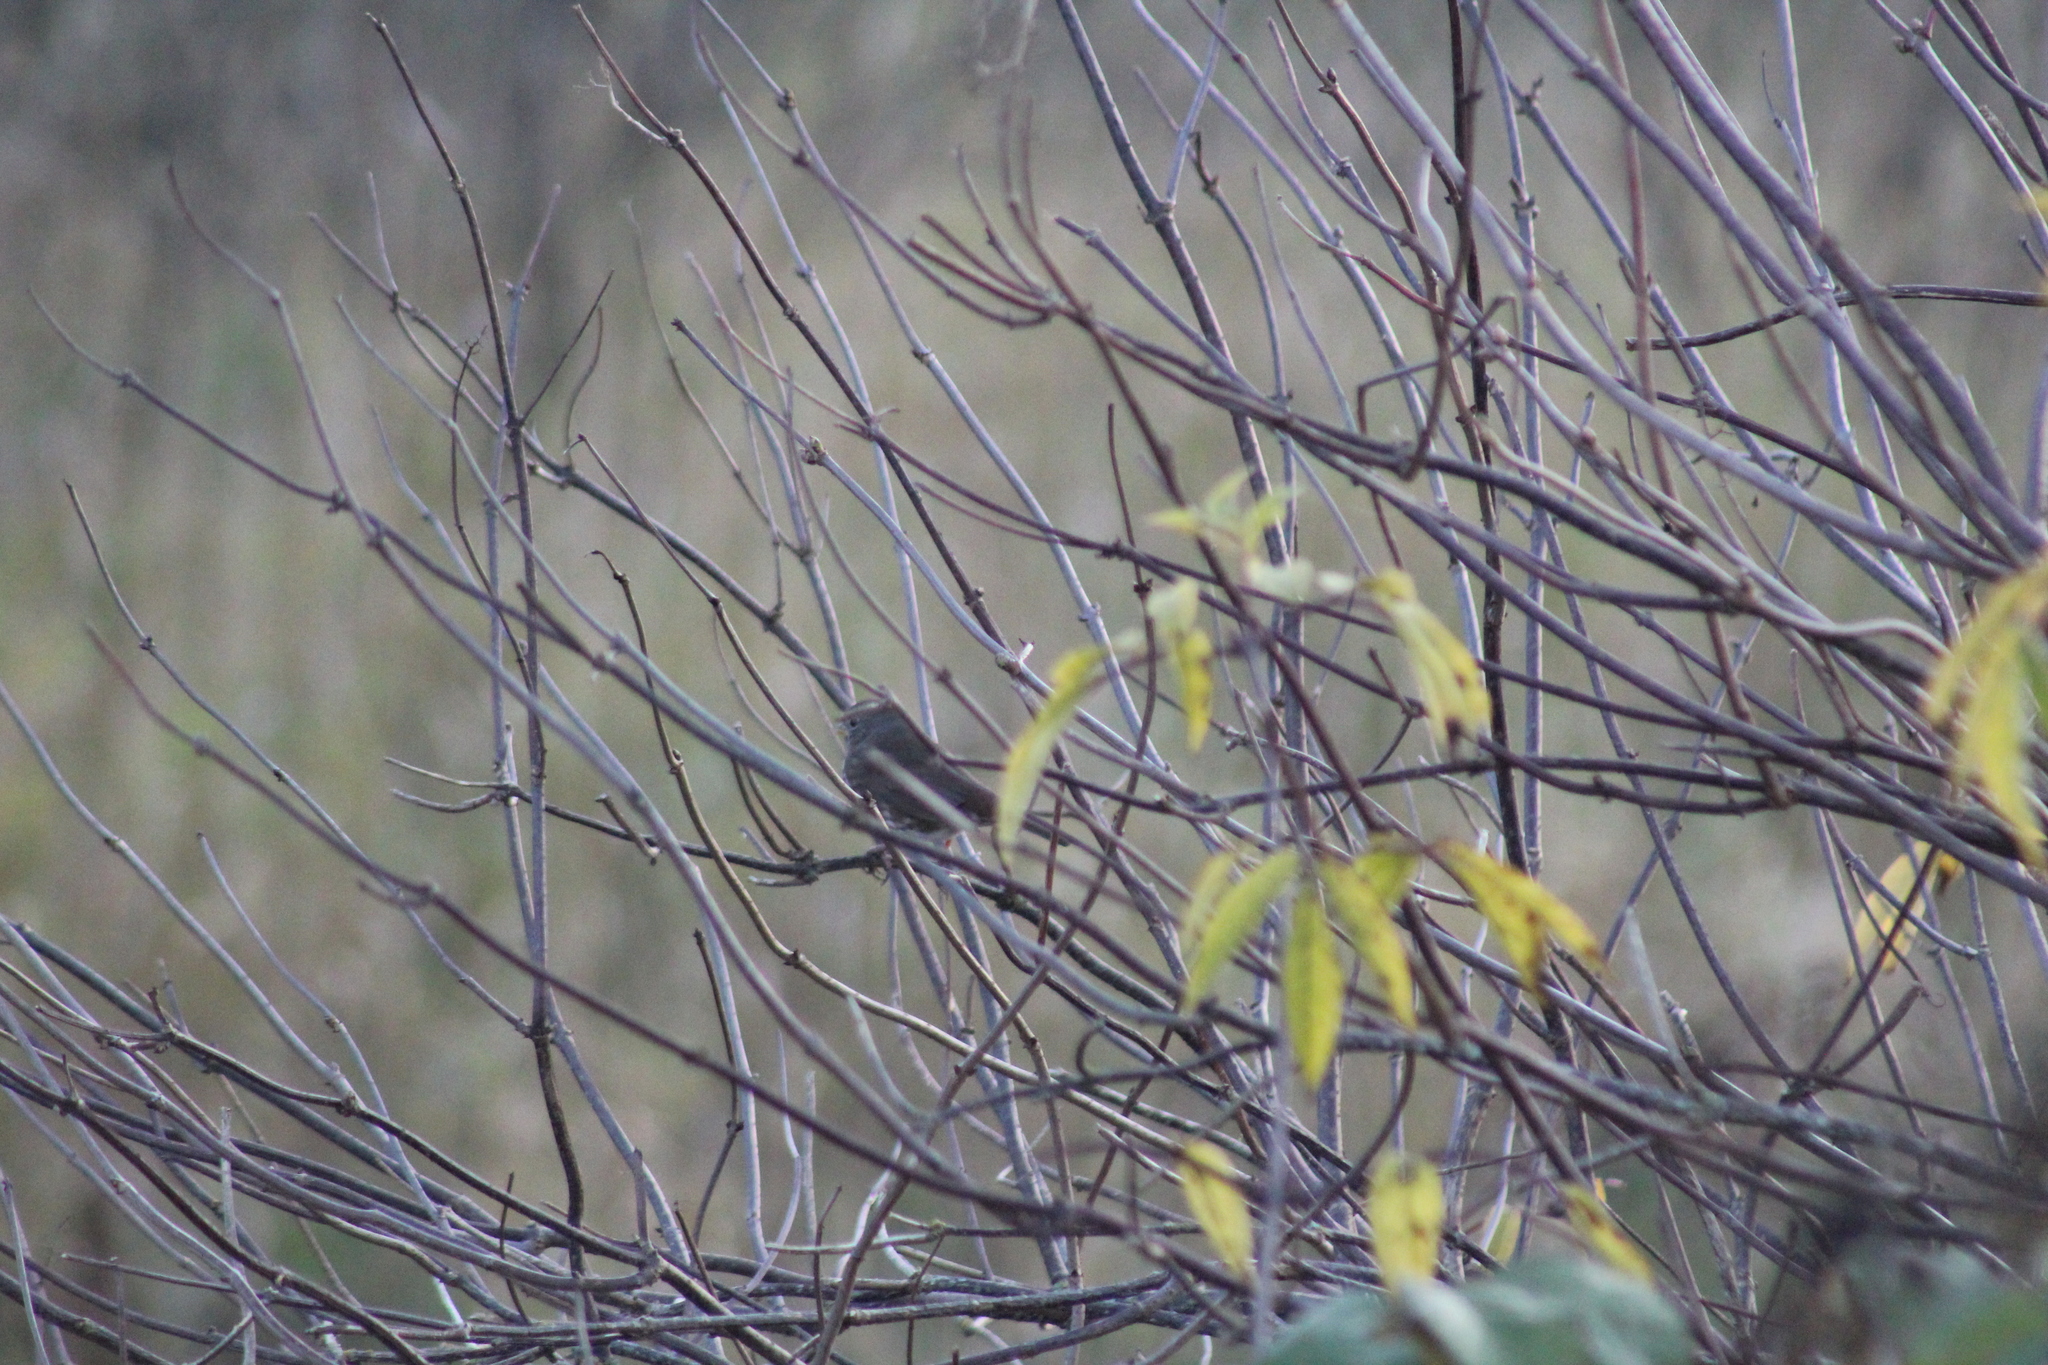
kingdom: Animalia
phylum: Chordata
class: Aves
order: Passeriformes
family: Passerellidae
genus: Passerella
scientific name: Passerella iliaca
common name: Fox sparrow
